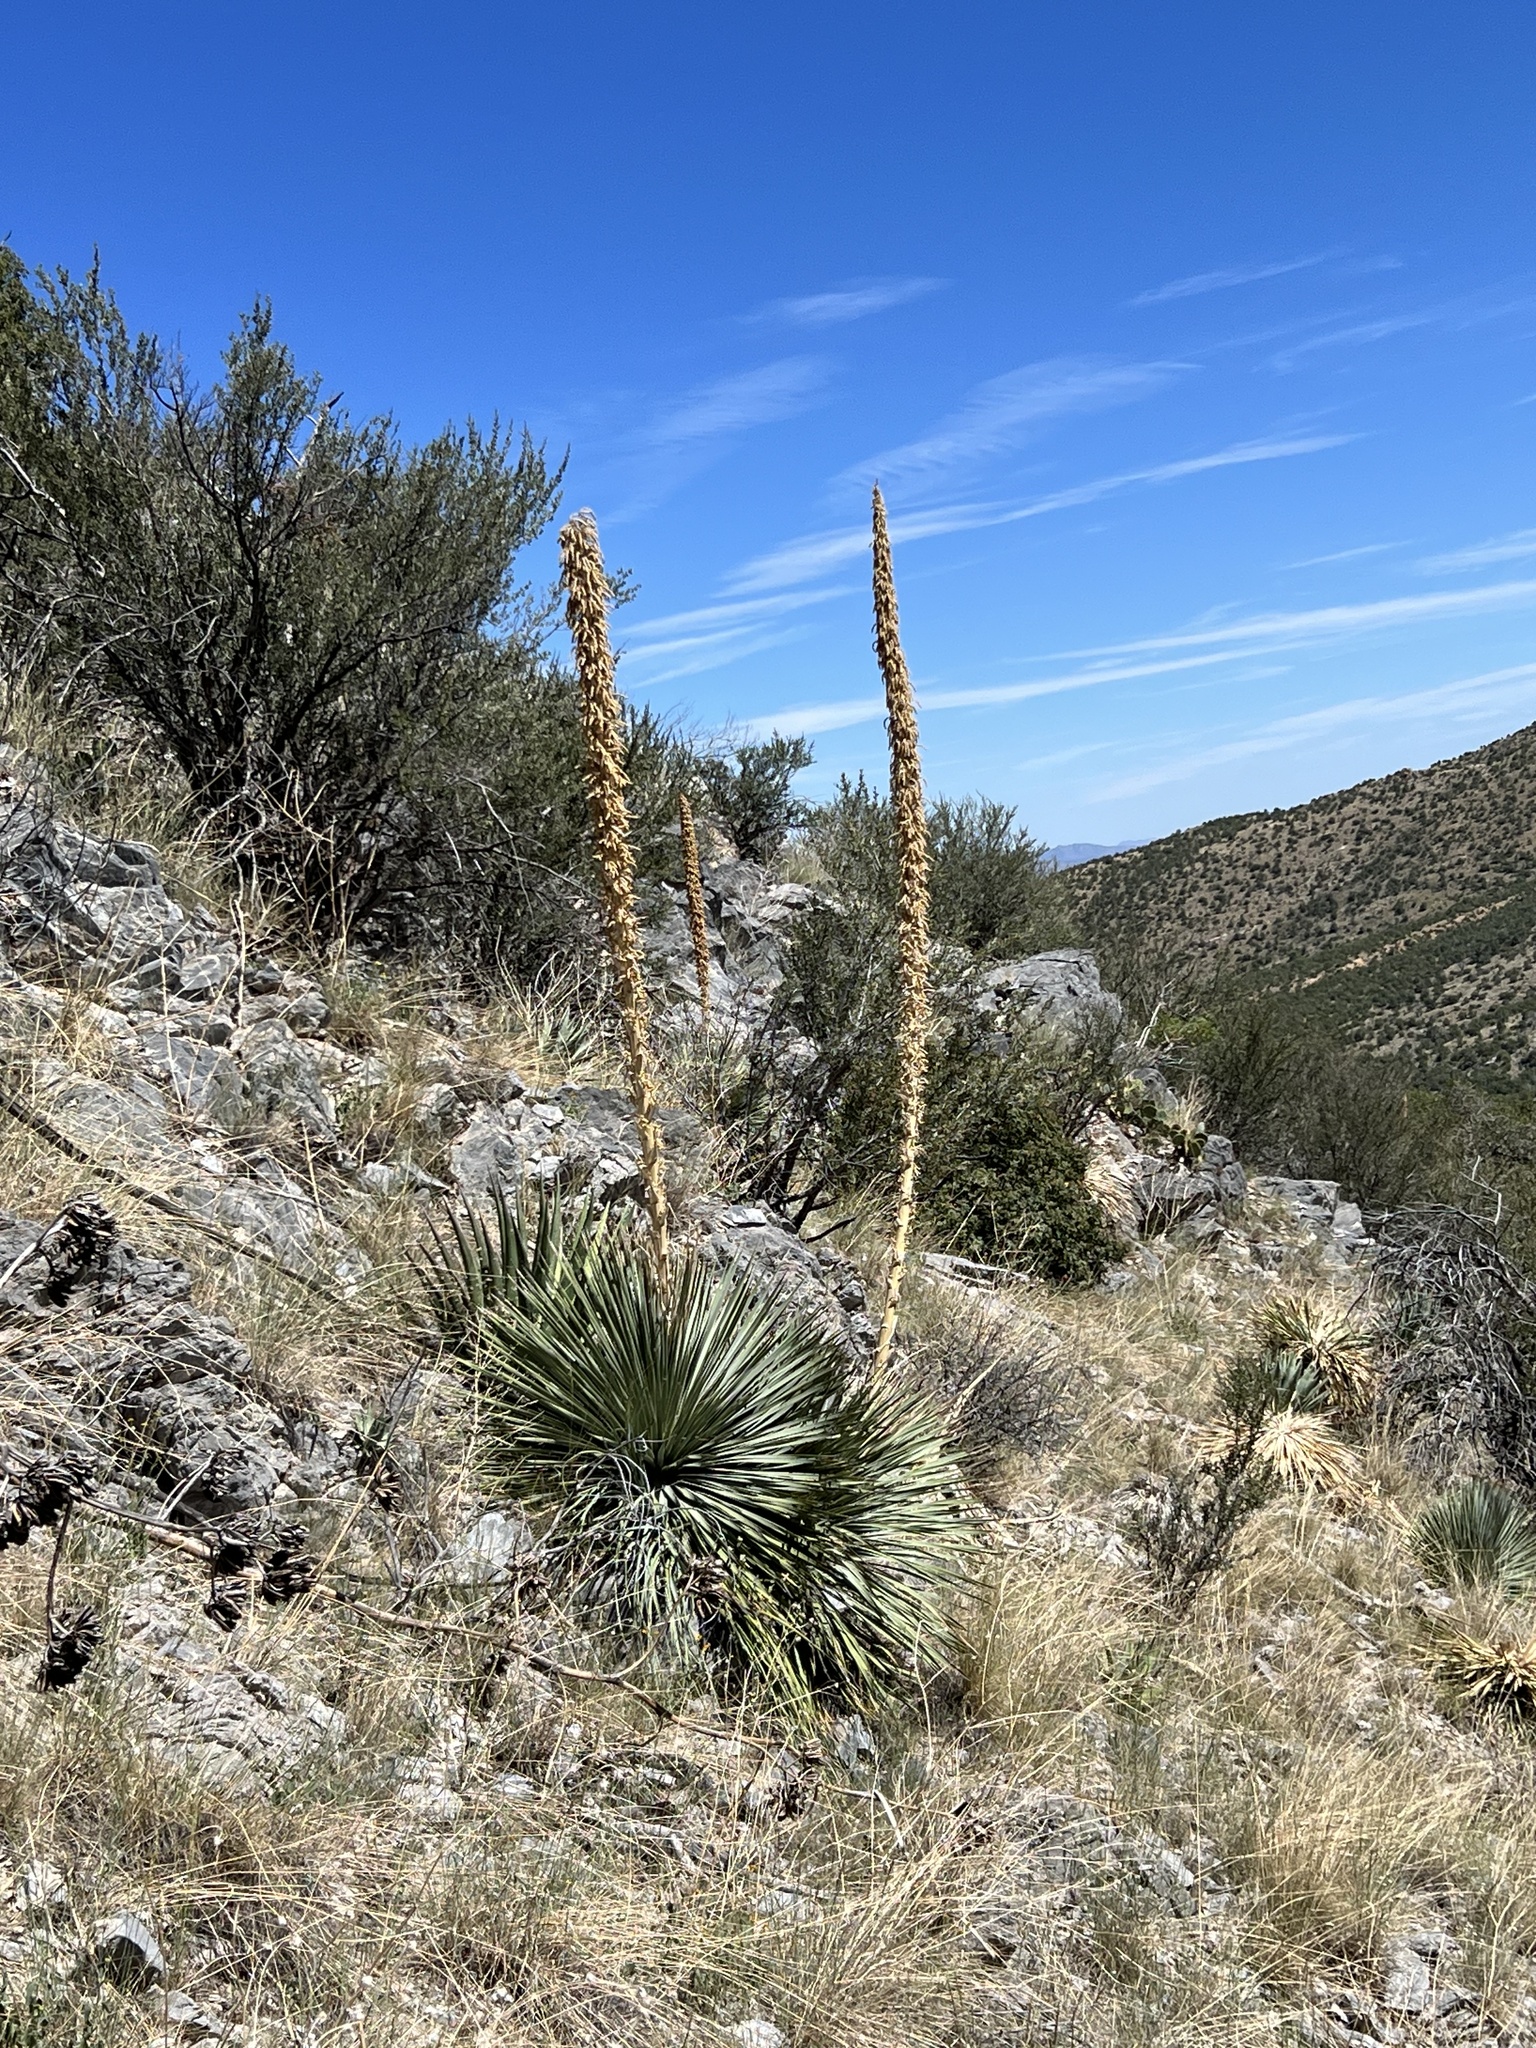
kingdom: Plantae
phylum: Tracheophyta
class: Liliopsida
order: Asparagales
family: Asparagaceae
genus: Dasylirion
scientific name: Dasylirion wheeleri
